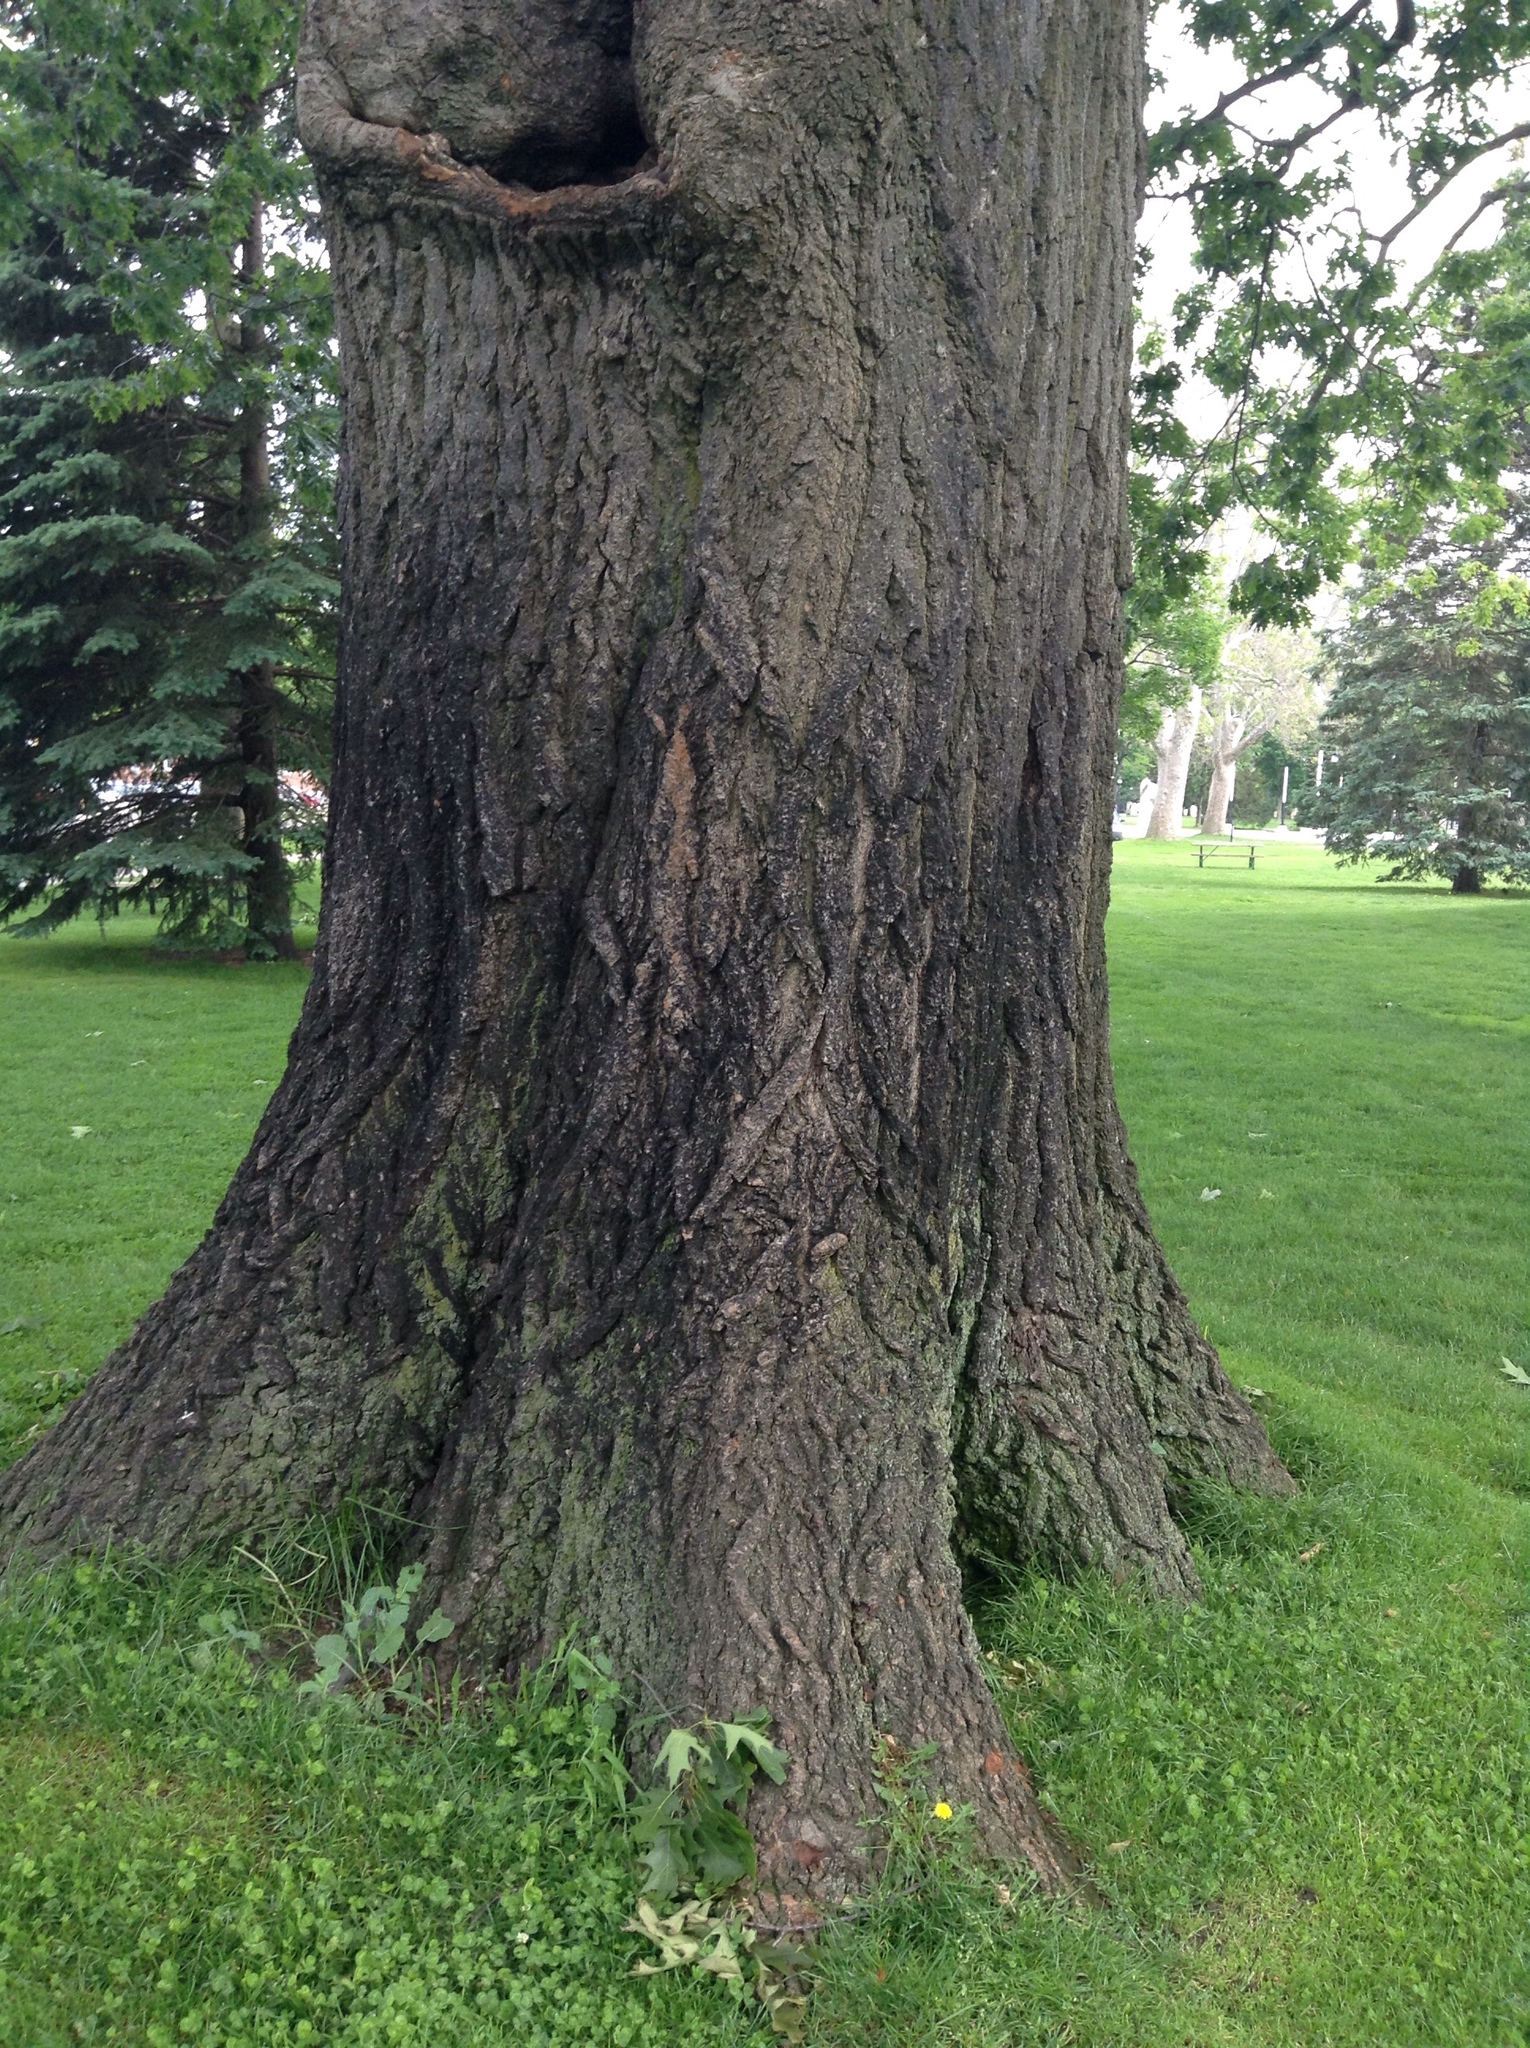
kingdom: Plantae
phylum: Tracheophyta
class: Magnoliopsida
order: Fagales
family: Fagaceae
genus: Quercus
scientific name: Quercus rubra
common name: Red oak
